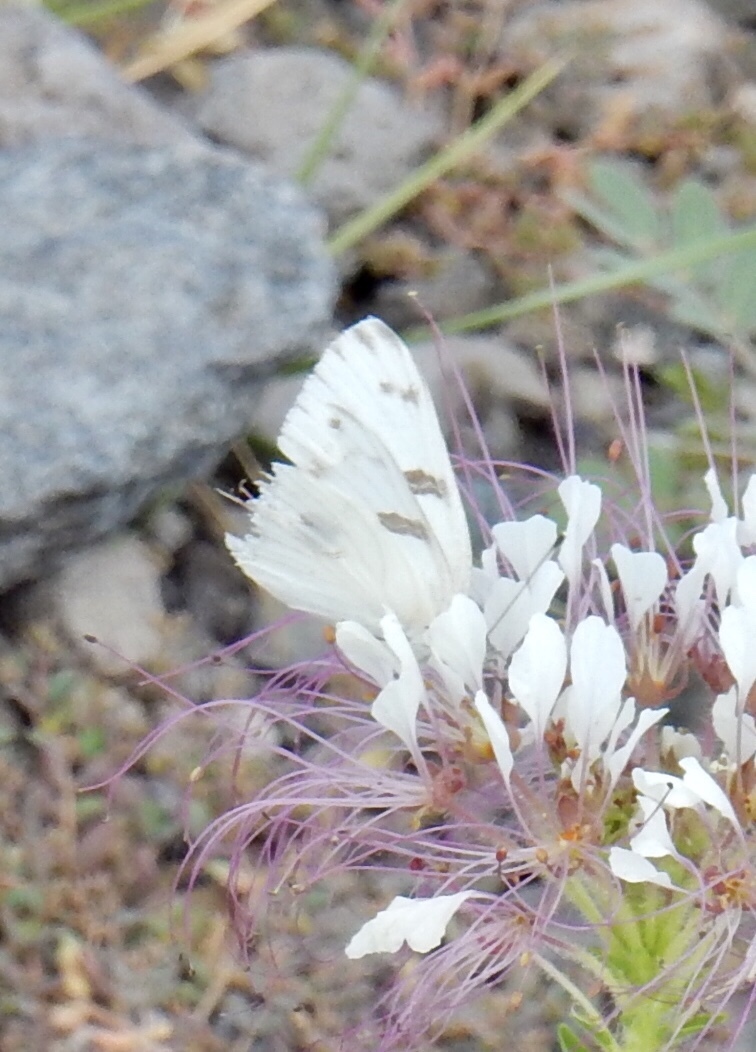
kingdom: Animalia
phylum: Arthropoda
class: Insecta
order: Lepidoptera
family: Pieridae
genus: Pontia
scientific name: Pontia protodice
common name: Checkered white
